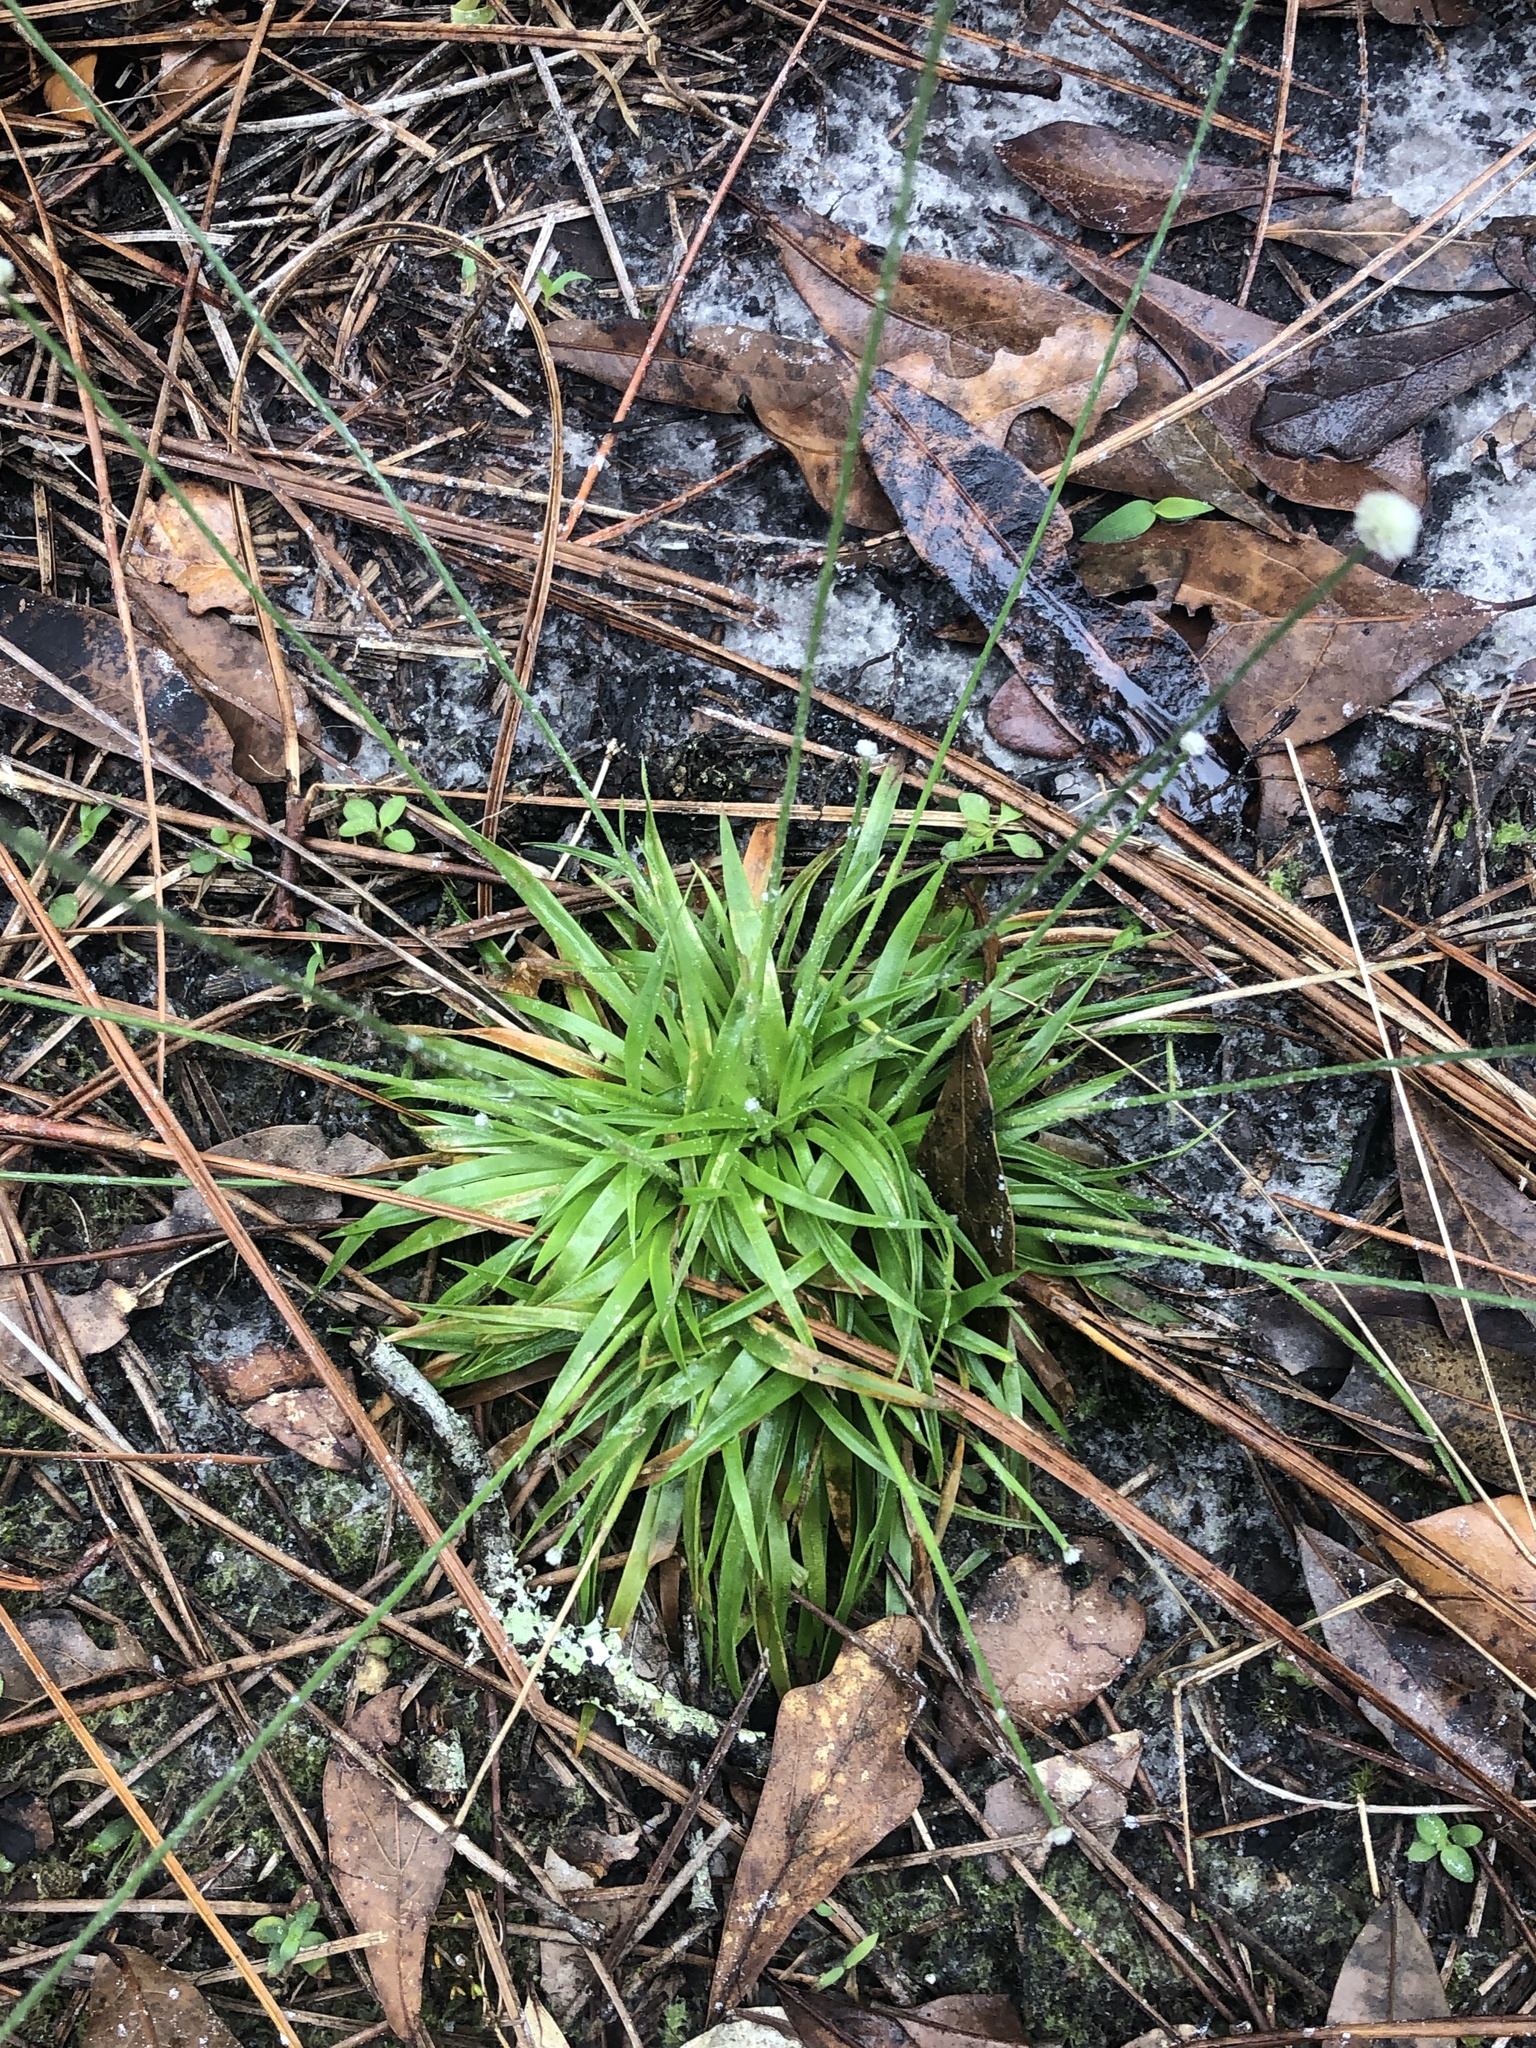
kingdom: Plantae
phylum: Tracheophyta
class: Liliopsida
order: Poales
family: Eriocaulaceae
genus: Paepalanthus
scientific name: Paepalanthus anceps
